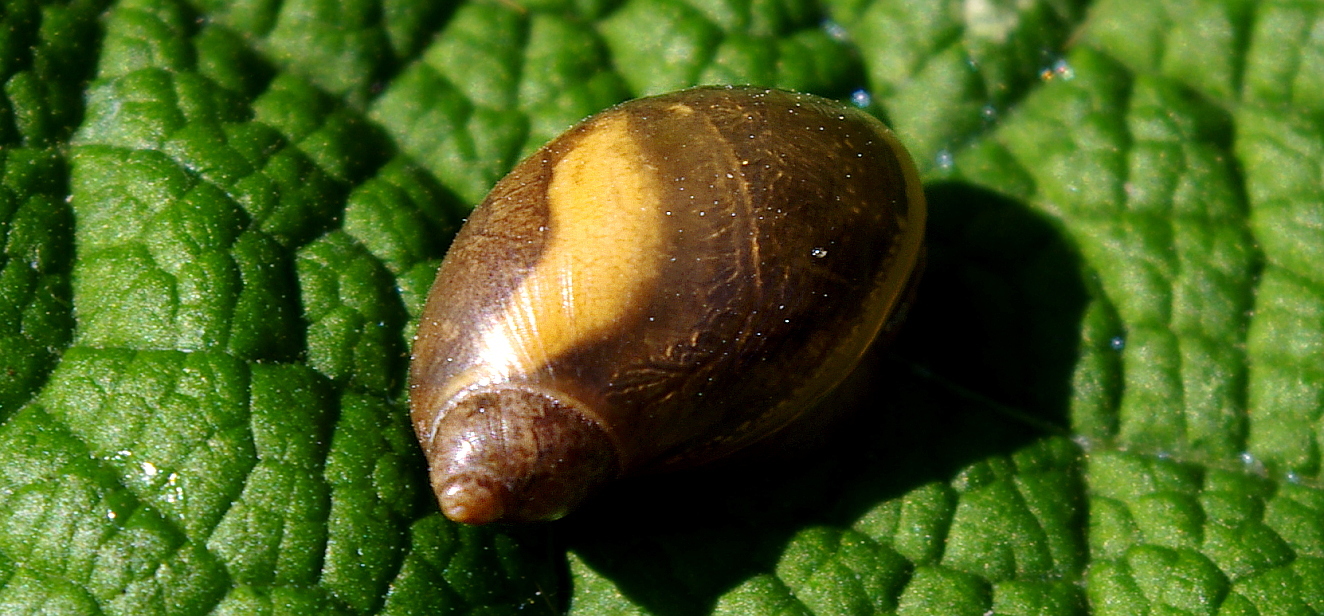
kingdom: Animalia
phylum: Mollusca
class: Gastropoda
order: Stylommatophora
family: Succineidae
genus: Succinea
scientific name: Succinea putris
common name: European ambersnail
